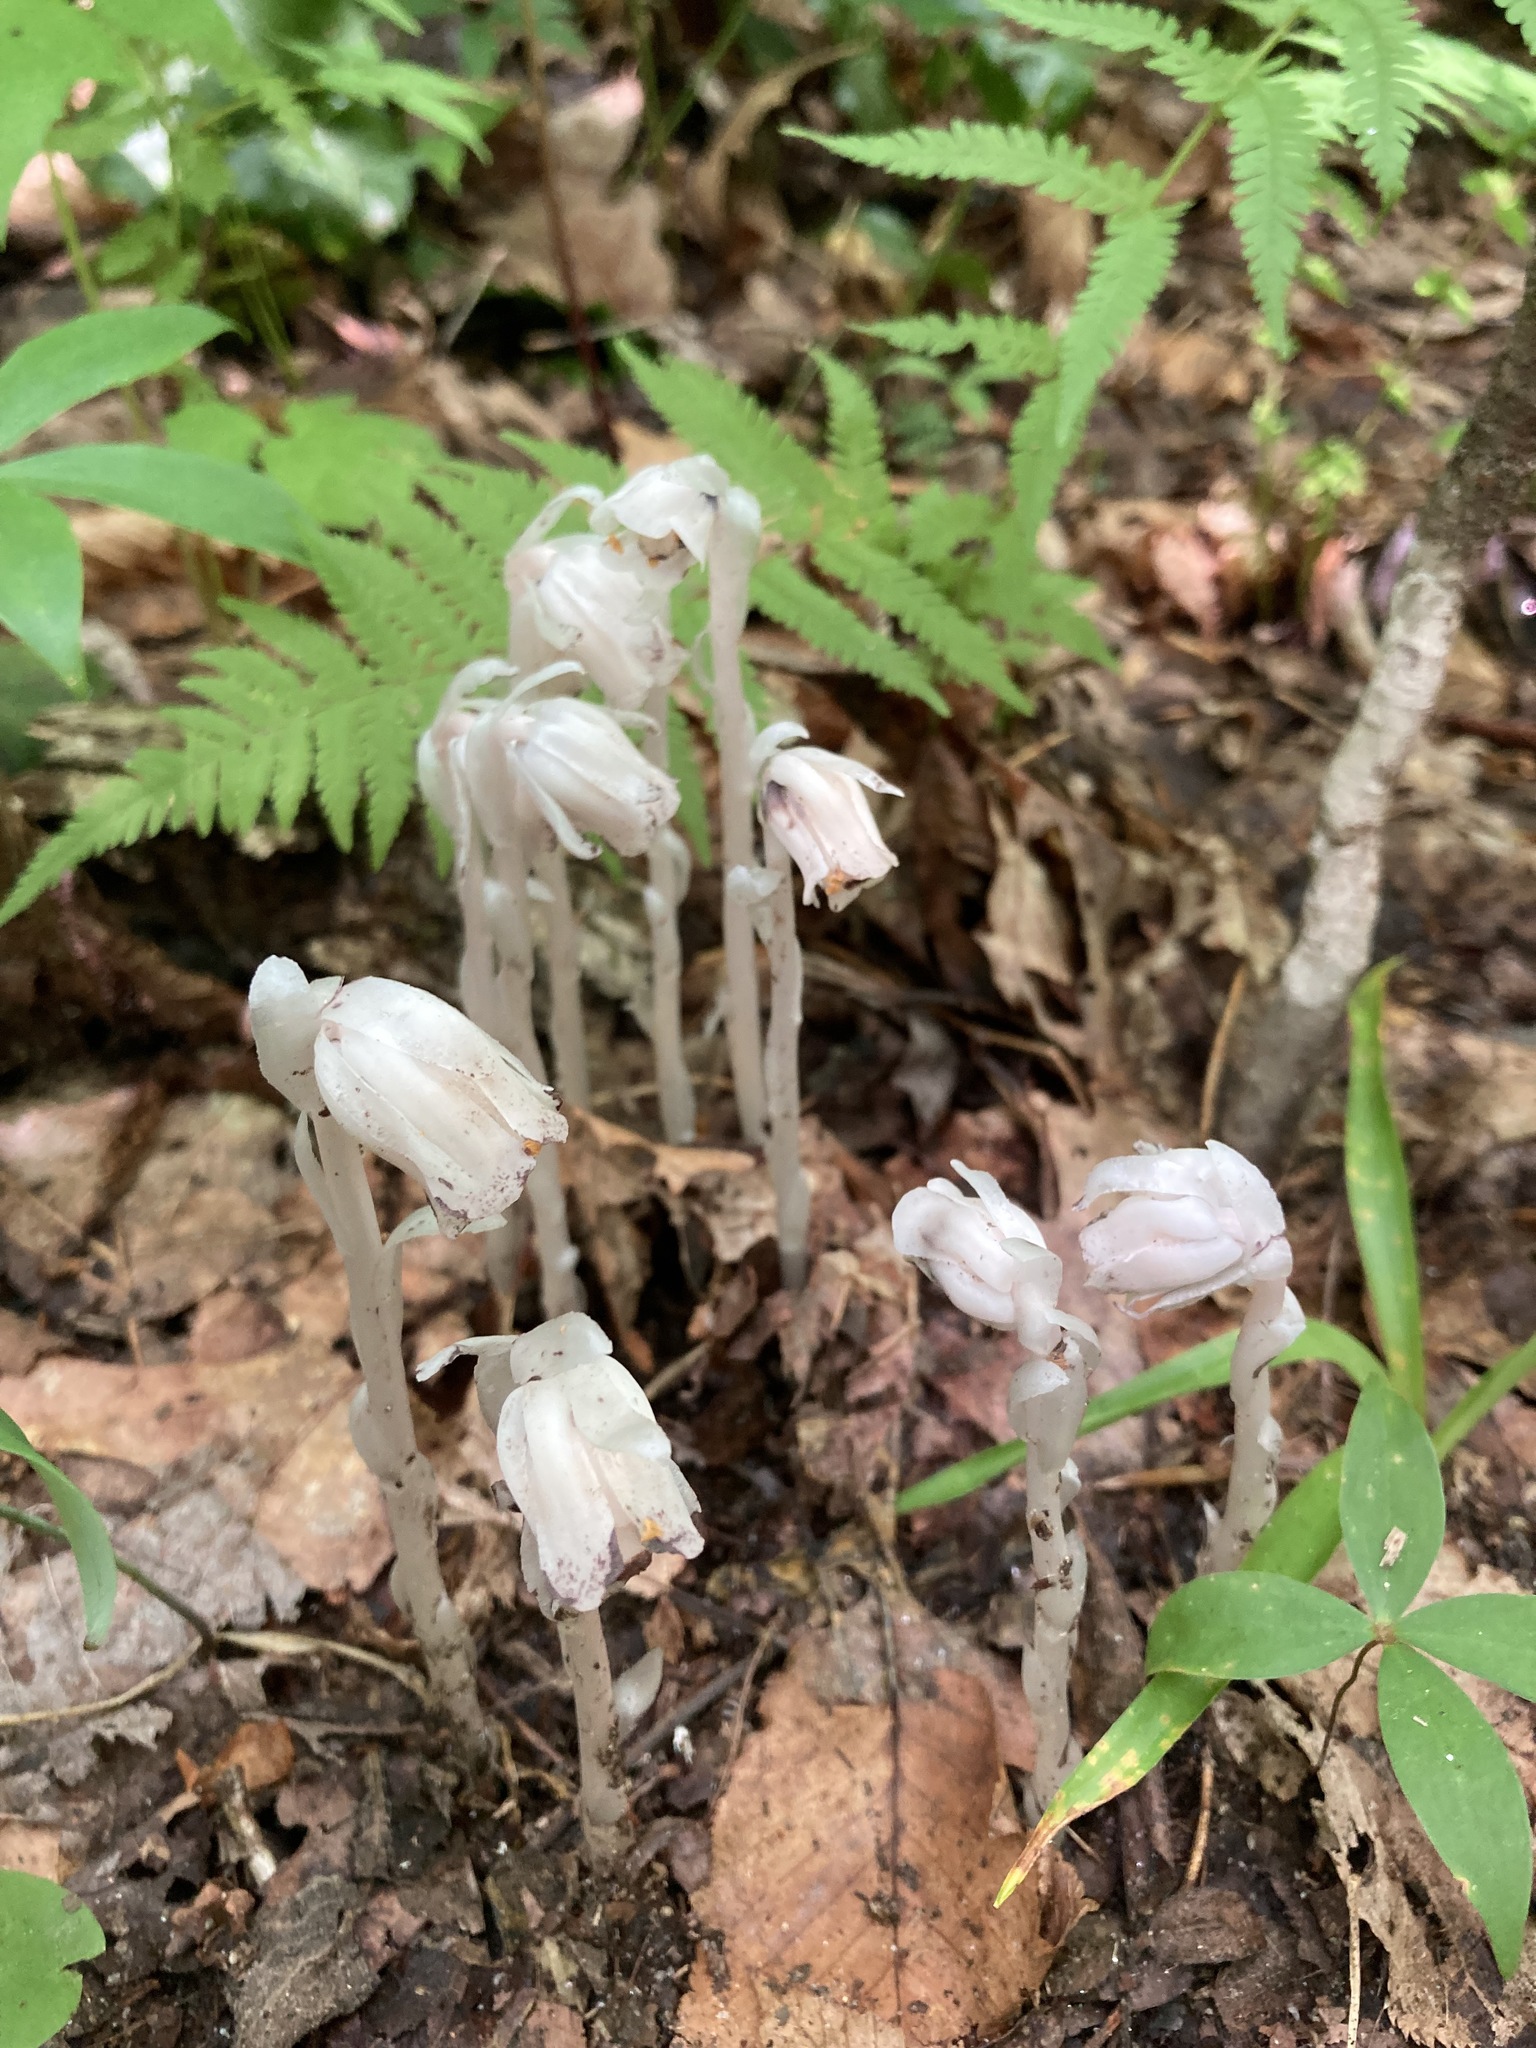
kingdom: Plantae
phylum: Tracheophyta
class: Magnoliopsida
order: Ericales
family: Ericaceae
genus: Monotropa
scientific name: Monotropa uniflora
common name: Convulsion root
